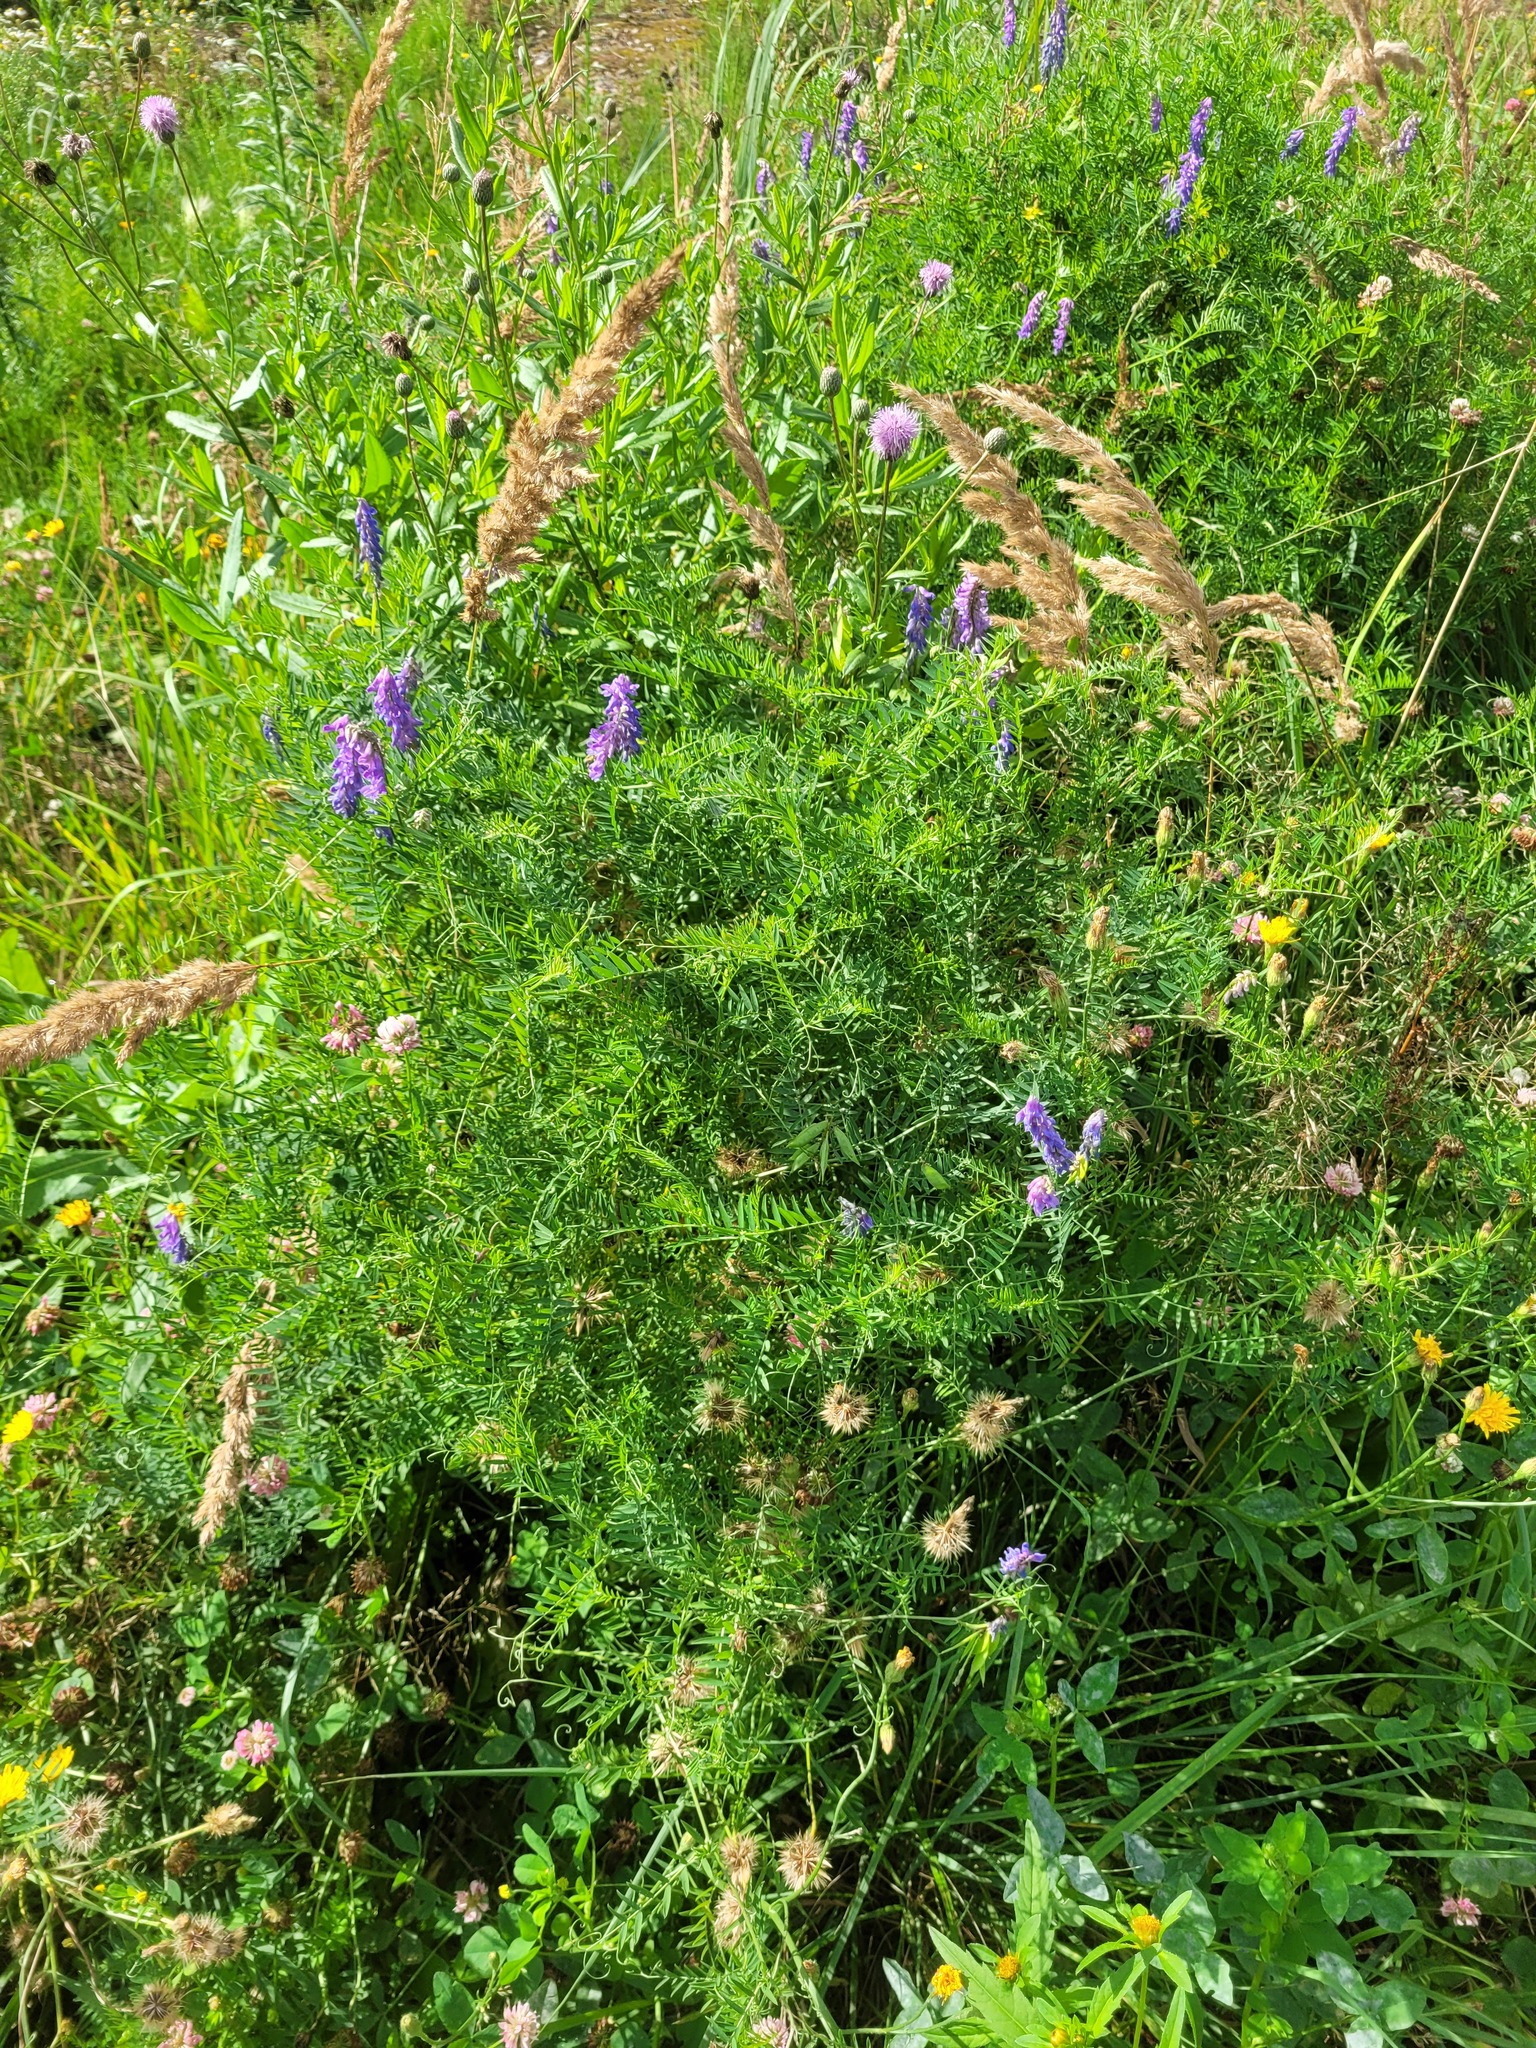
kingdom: Plantae
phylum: Tracheophyta
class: Magnoliopsida
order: Fabales
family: Fabaceae
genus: Vicia
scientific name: Vicia cracca
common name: Bird vetch
